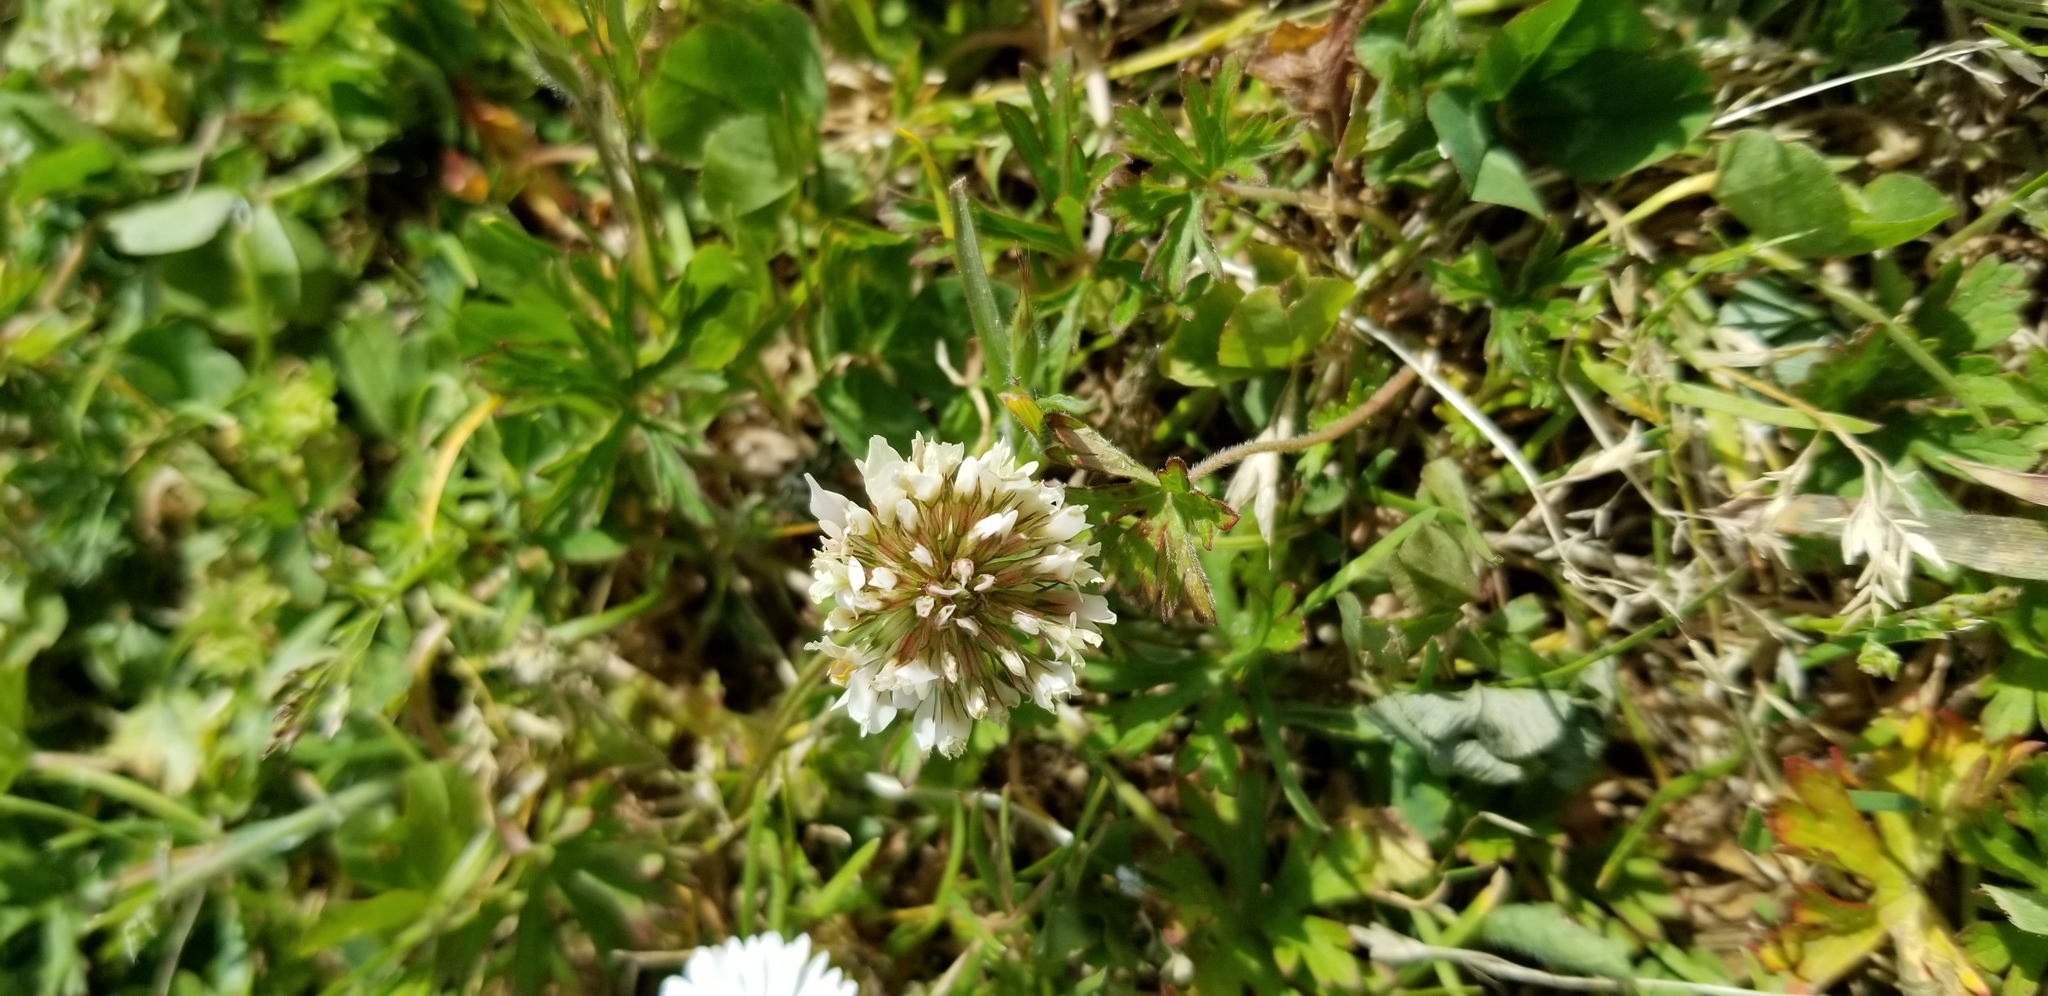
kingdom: Plantae
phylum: Tracheophyta
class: Magnoliopsida
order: Fabales
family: Fabaceae
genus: Trifolium
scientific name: Trifolium repens
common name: White clover
